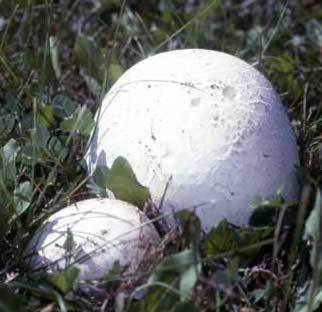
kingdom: Fungi
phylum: Basidiomycota
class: Agaricomycetes
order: Agaricales
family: Lycoperdaceae
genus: Calvatia
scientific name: Calvatia gigantea
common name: Giant puffball
